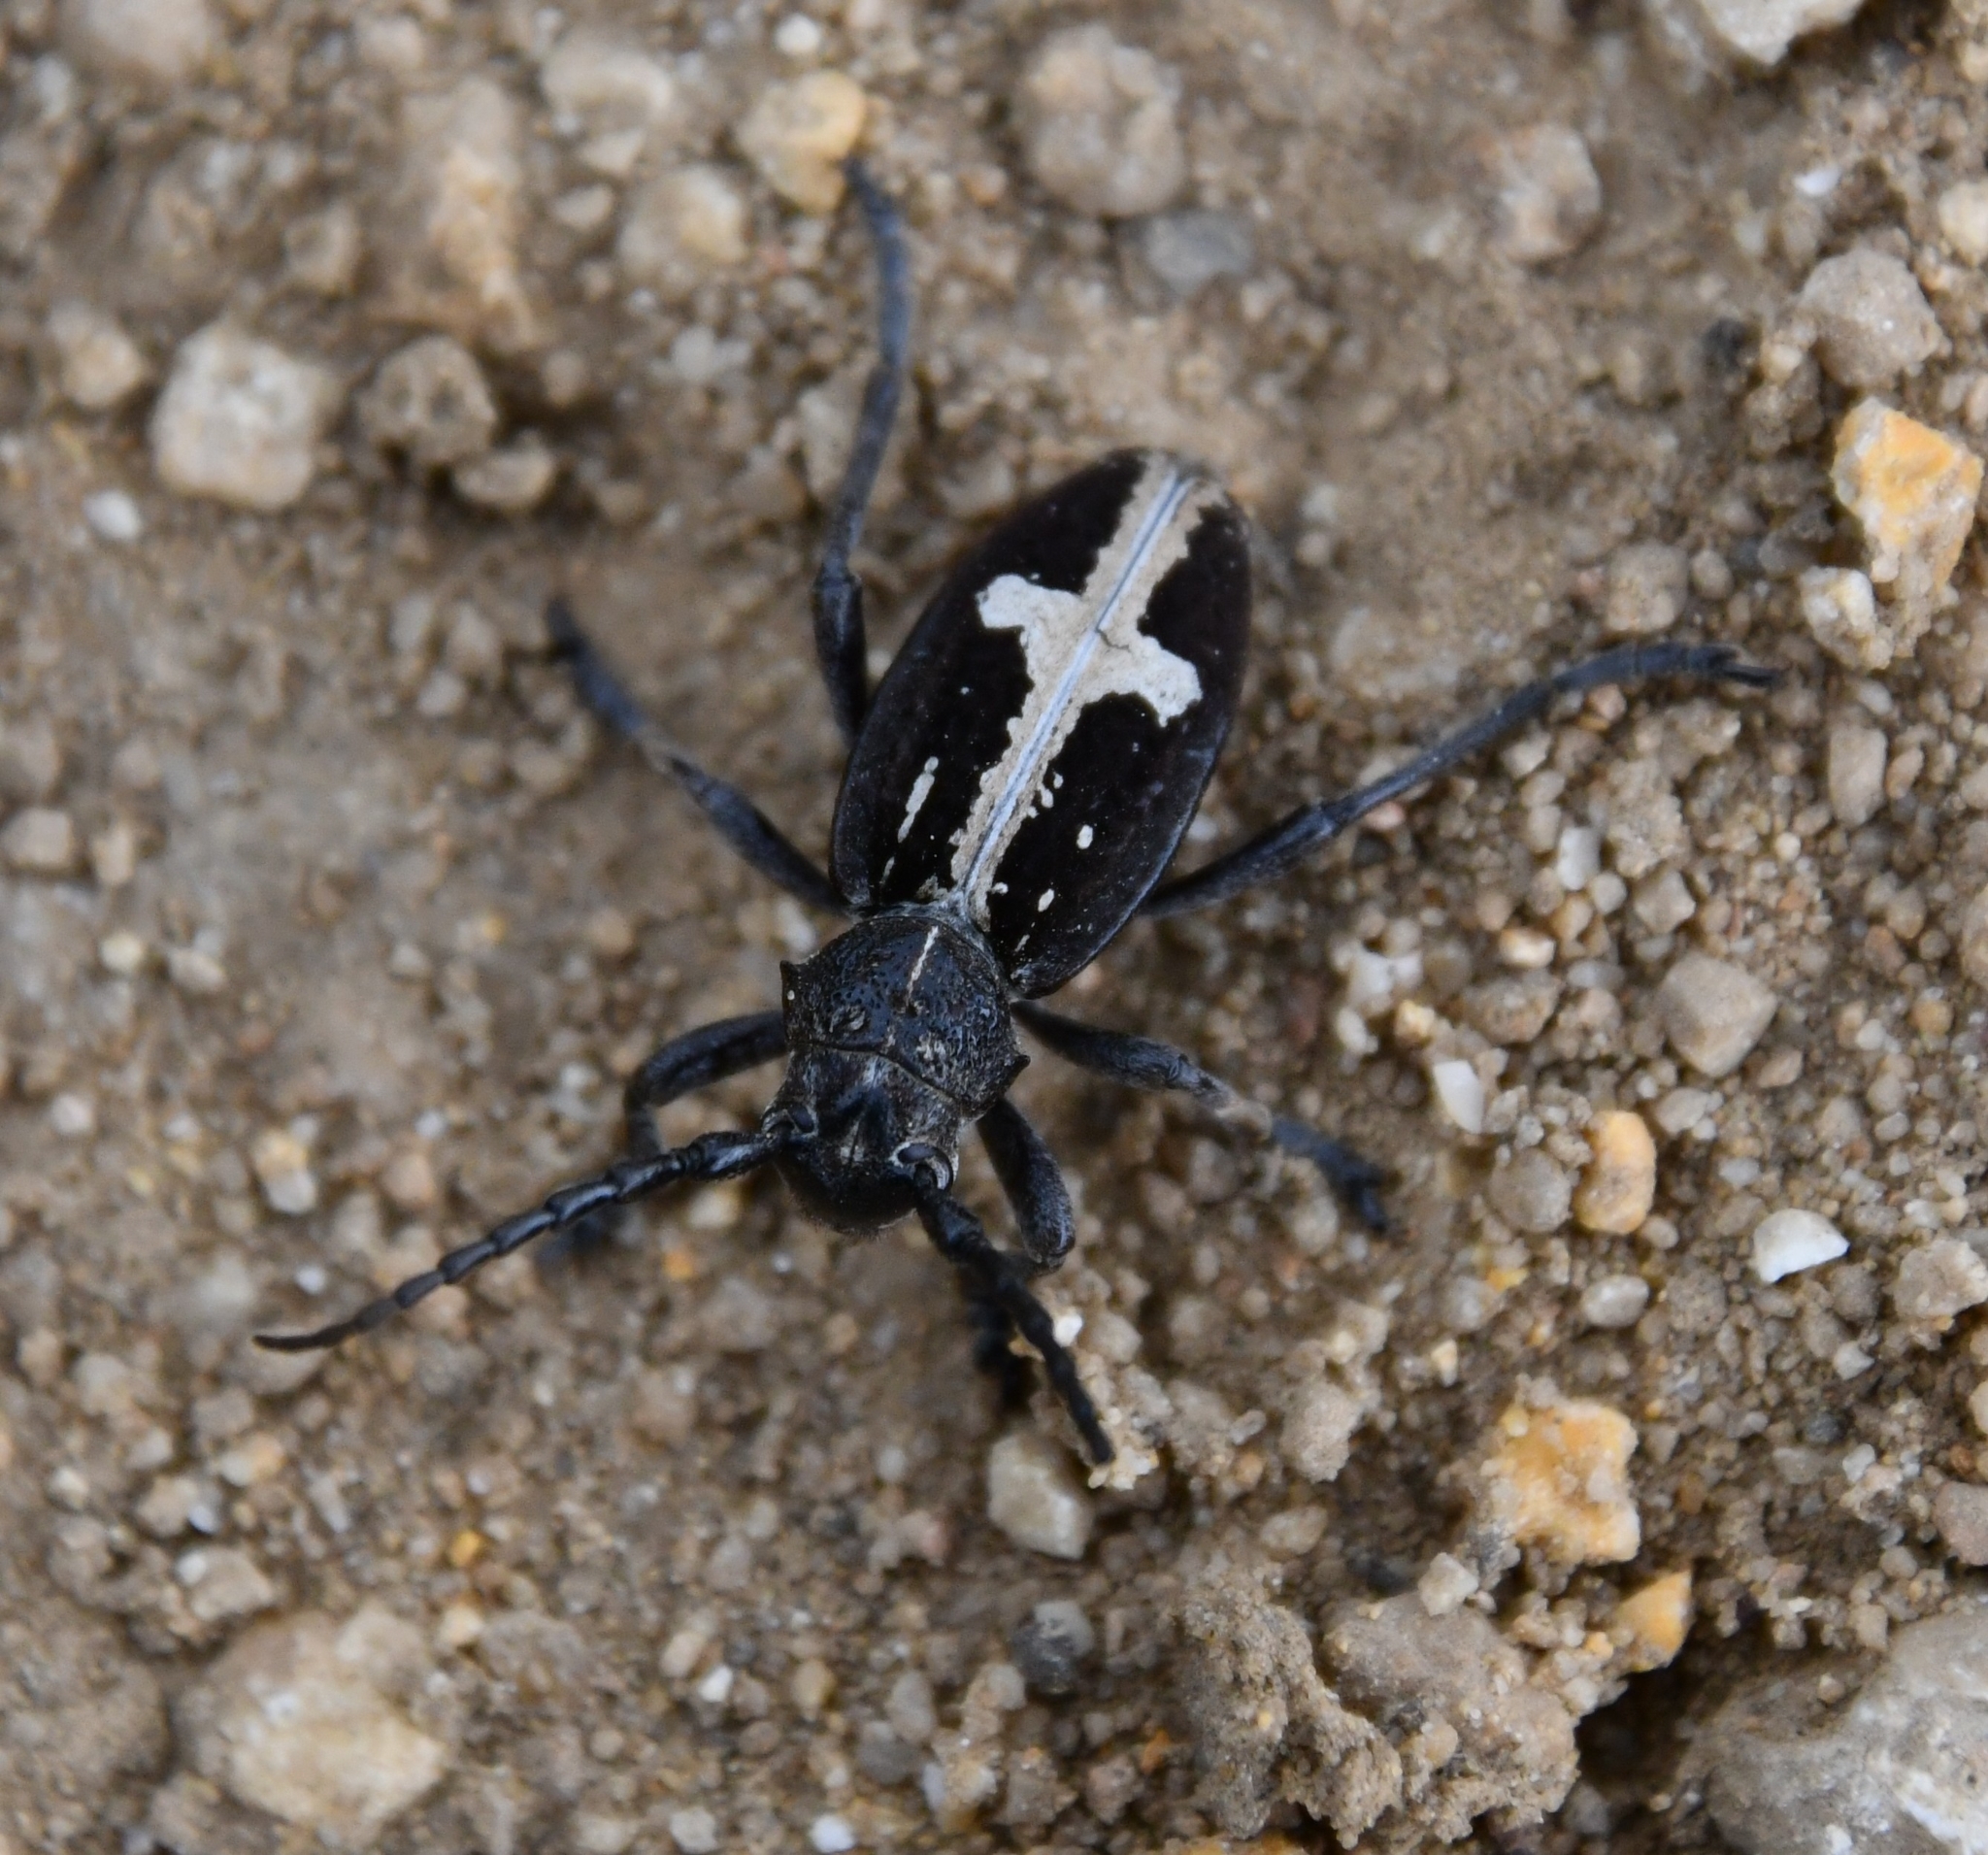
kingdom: Animalia
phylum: Arthropoda
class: Insecta
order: Coleoptera
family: Cerambycidae
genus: Dorcadion
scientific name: Dorcadion equestre
